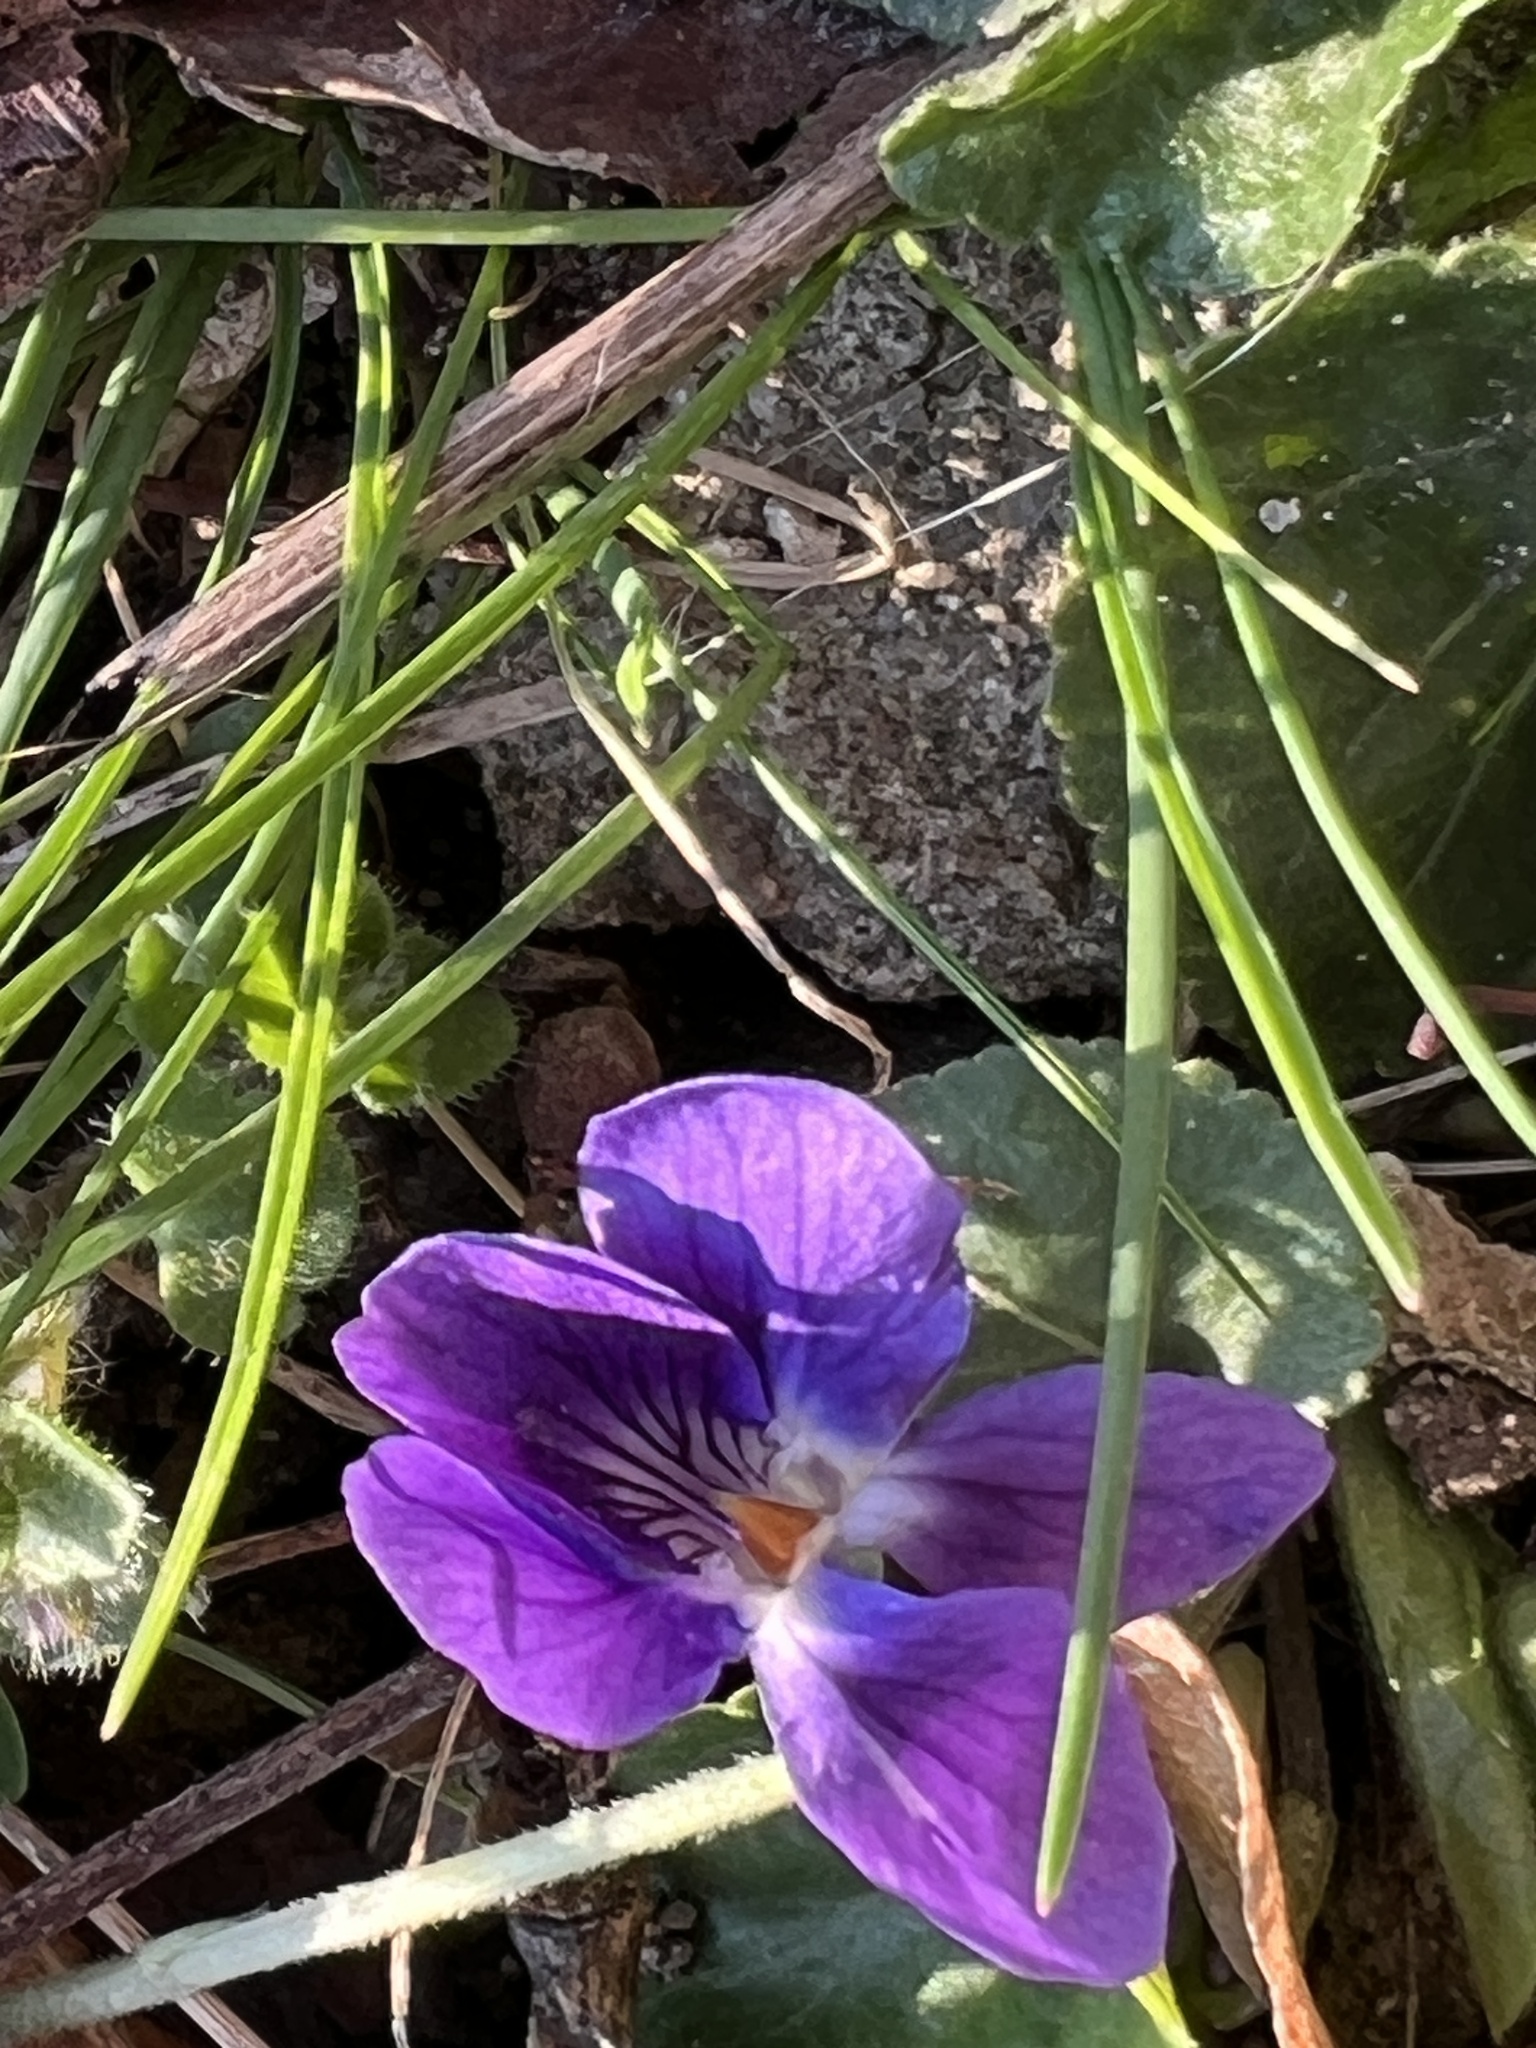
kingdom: Plantae
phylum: Tracheophyta
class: Magnoliopsida
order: Malpighiales
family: Violaceae
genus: Viola
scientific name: Viola odorata
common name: Sweet violet
